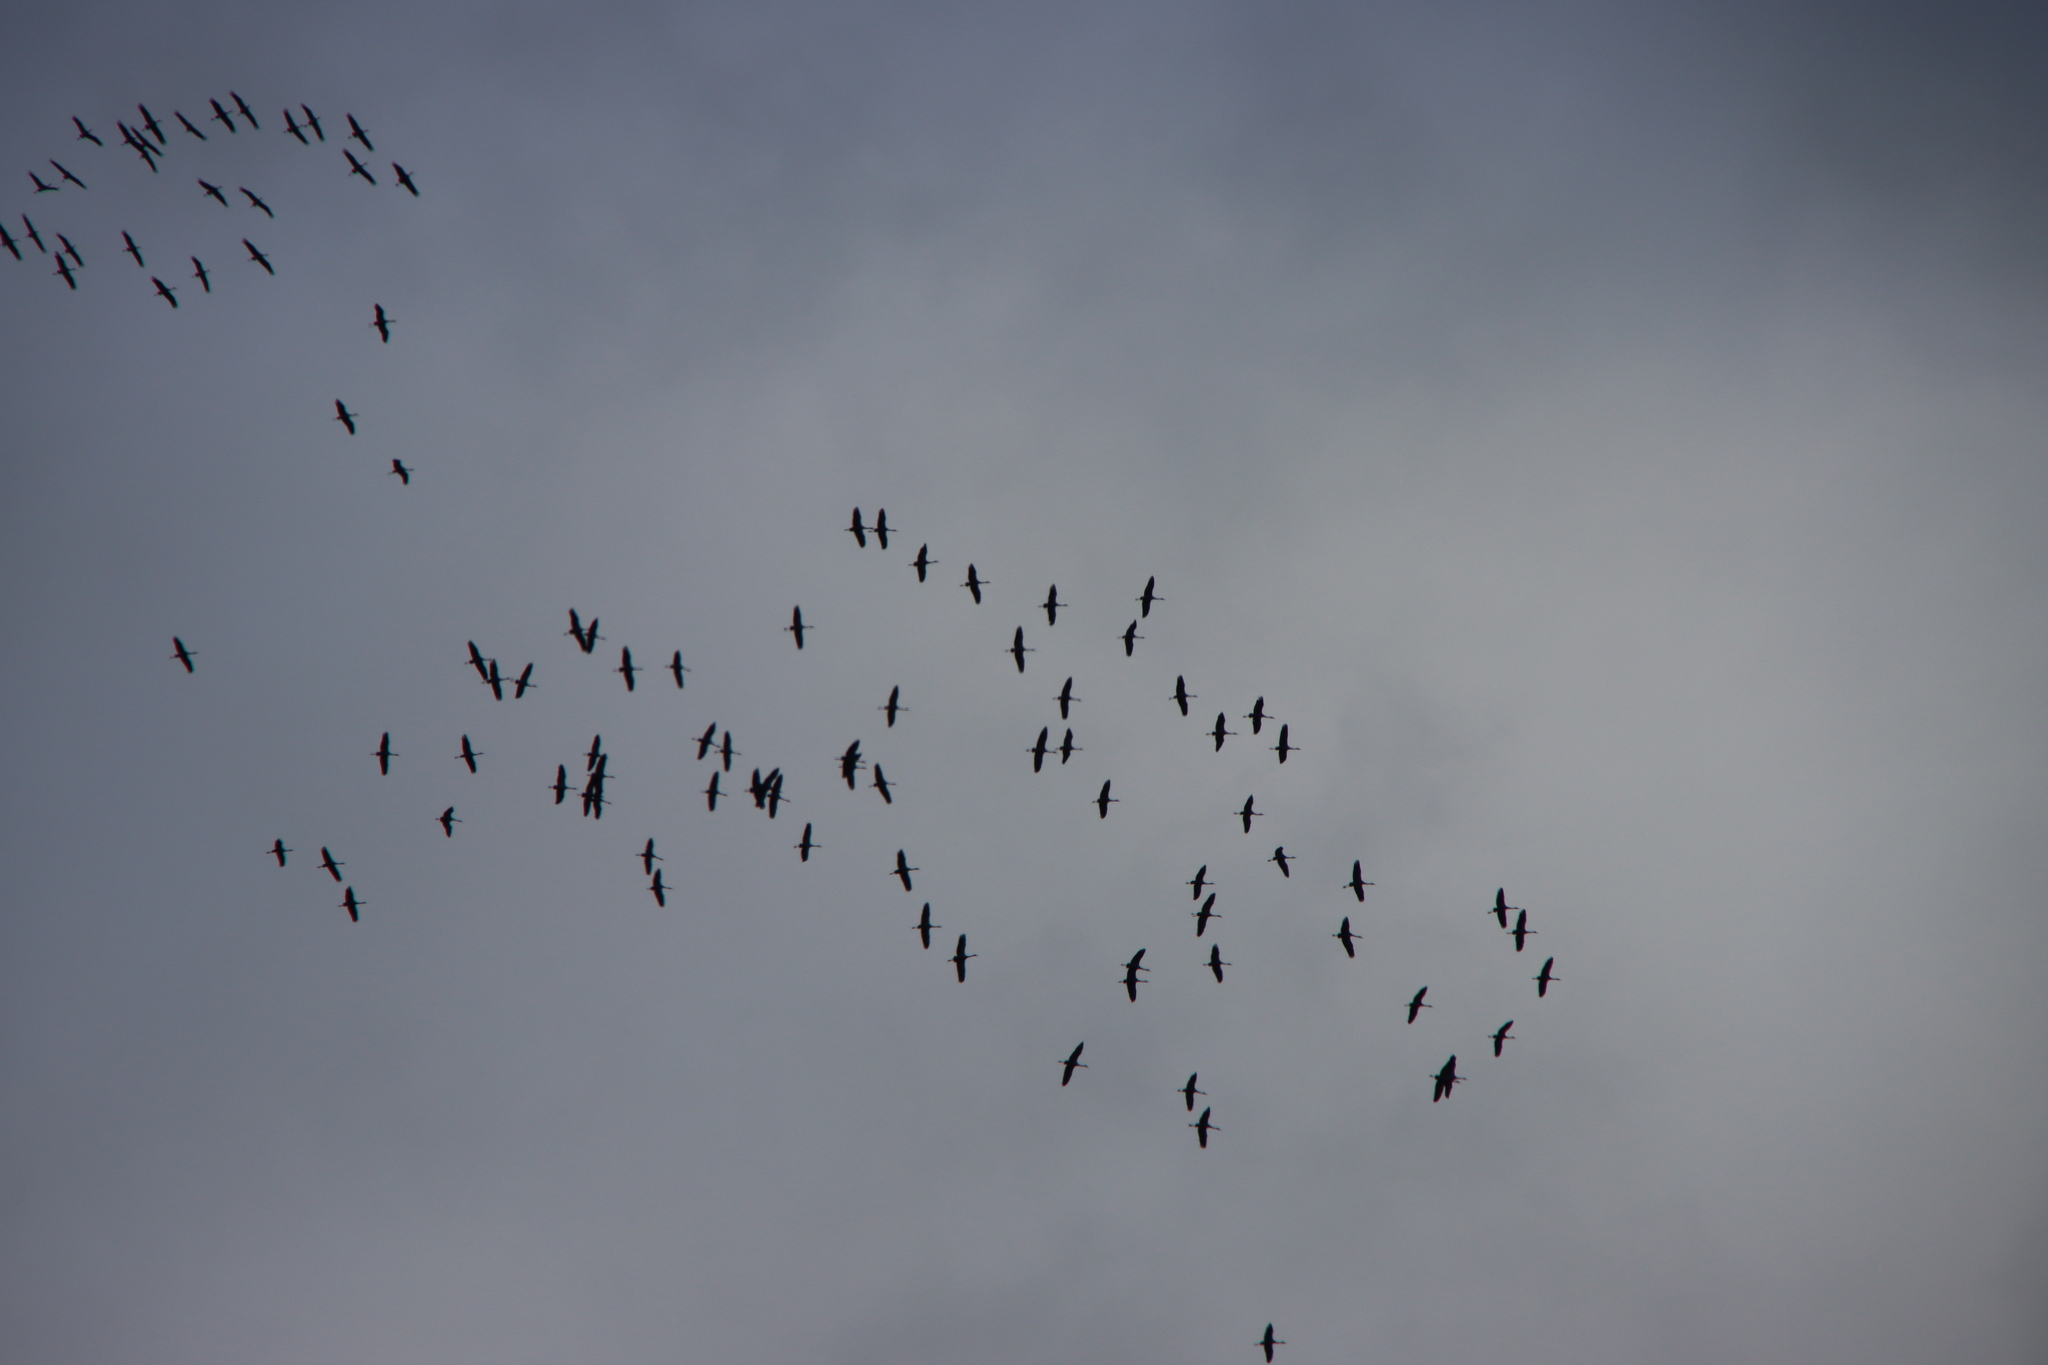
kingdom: Animalia
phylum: Chordata
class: Aves
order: Gruiformes
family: Gruidae
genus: Grus
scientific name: Grus grus
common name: Common crane
